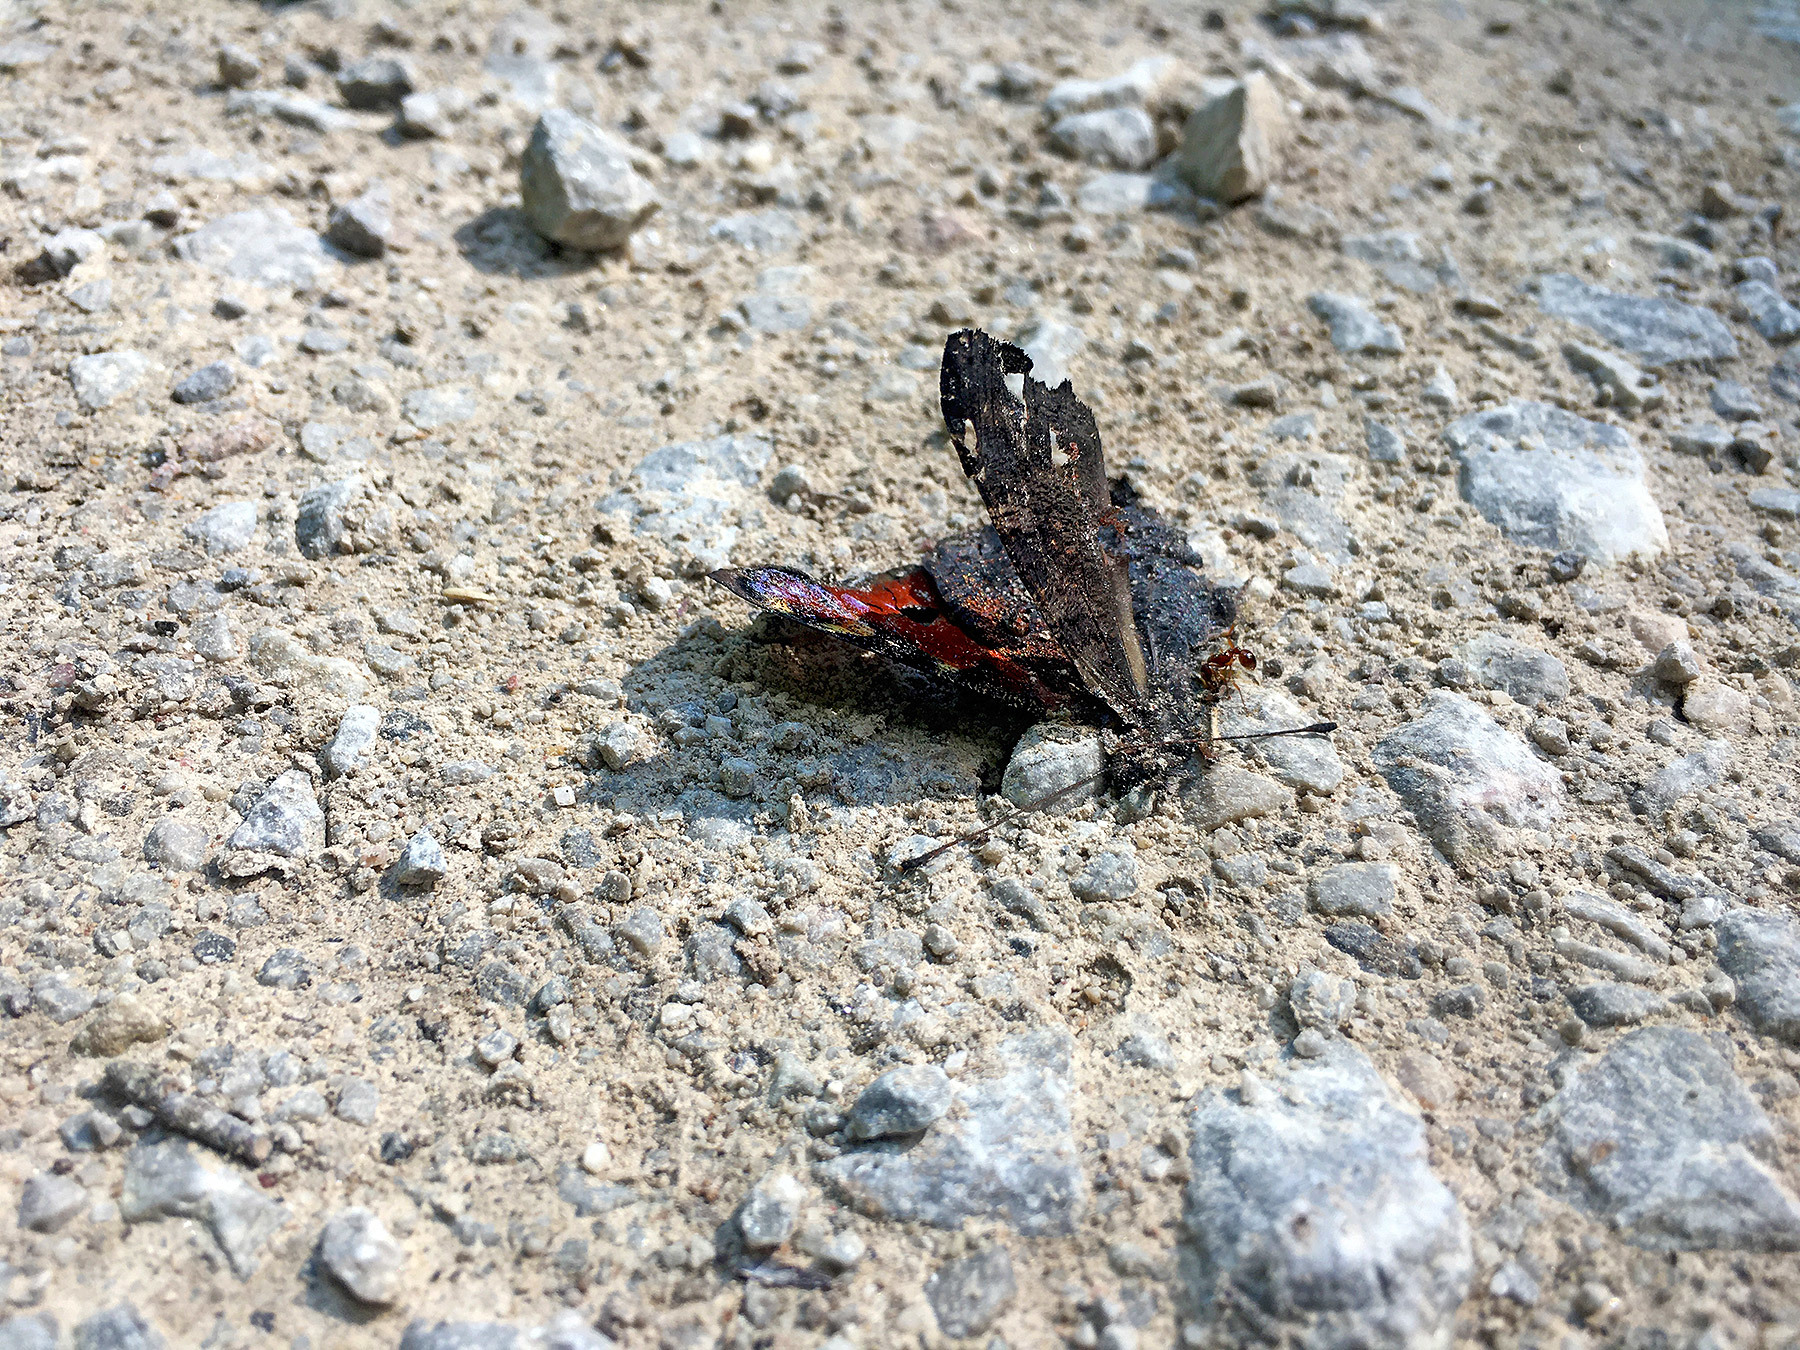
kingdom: Animalia
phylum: Arthropoda
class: Insecta
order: Lepidoptera
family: Nymphalidae
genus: Aglais
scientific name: Aglais io
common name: Peacock
